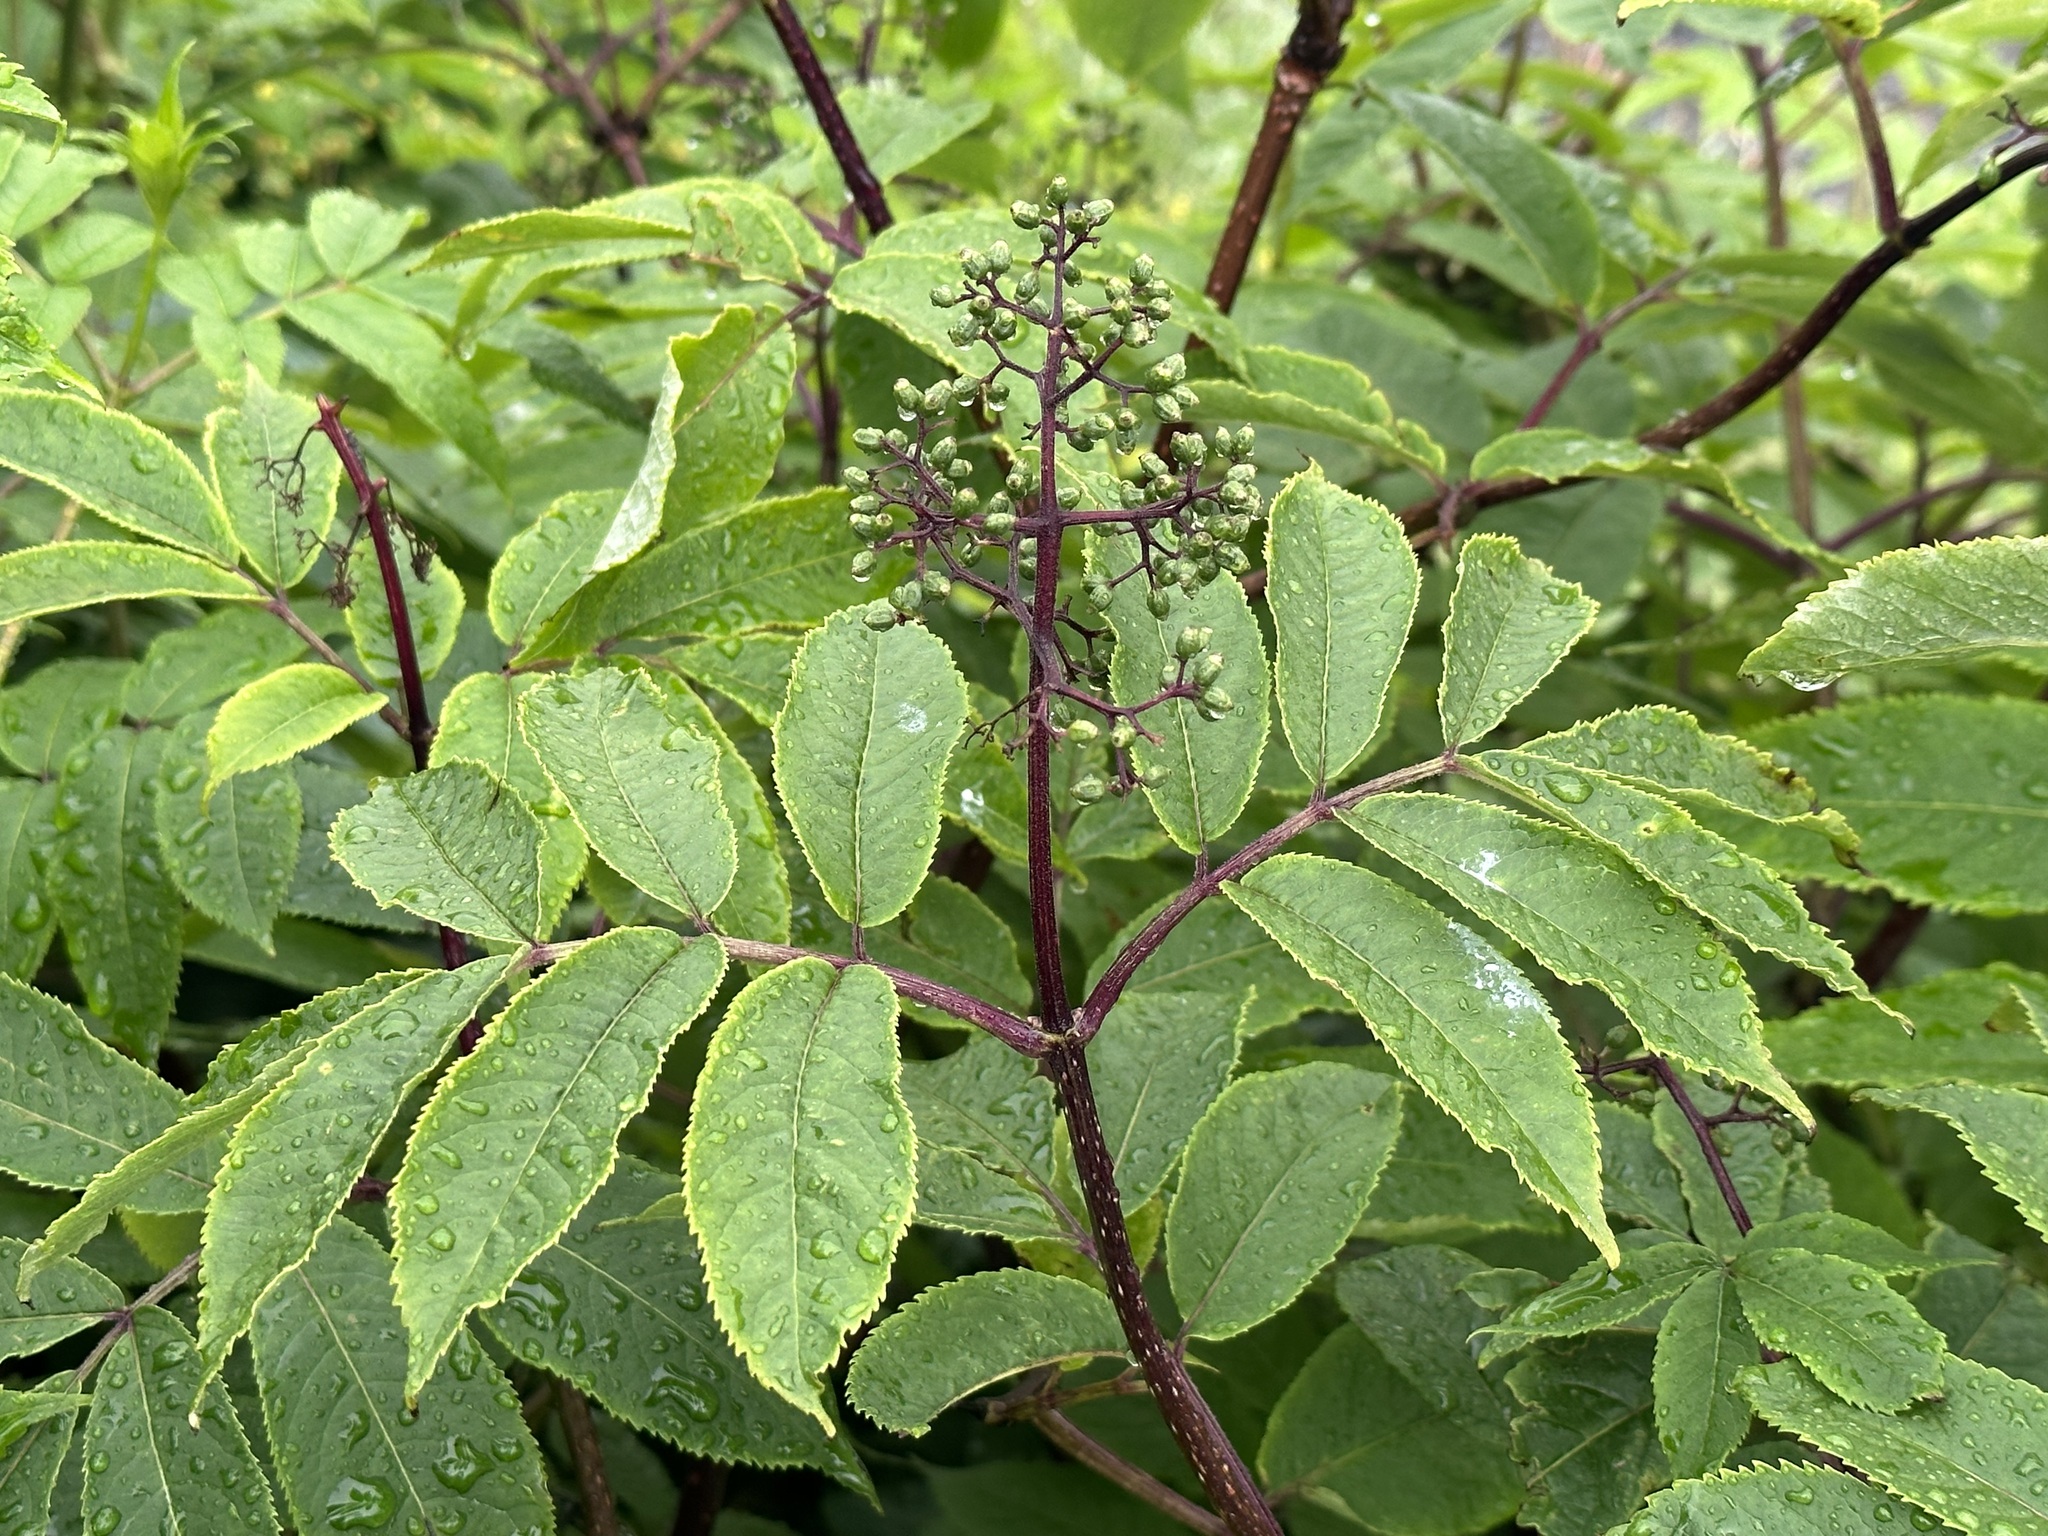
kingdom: Plantae
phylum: Tracheophyta
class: Magnoliopsida
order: Dipsacales
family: Viburnaceae
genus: Sambucus
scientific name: Sambucus racemosa
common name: Red-berried elder
